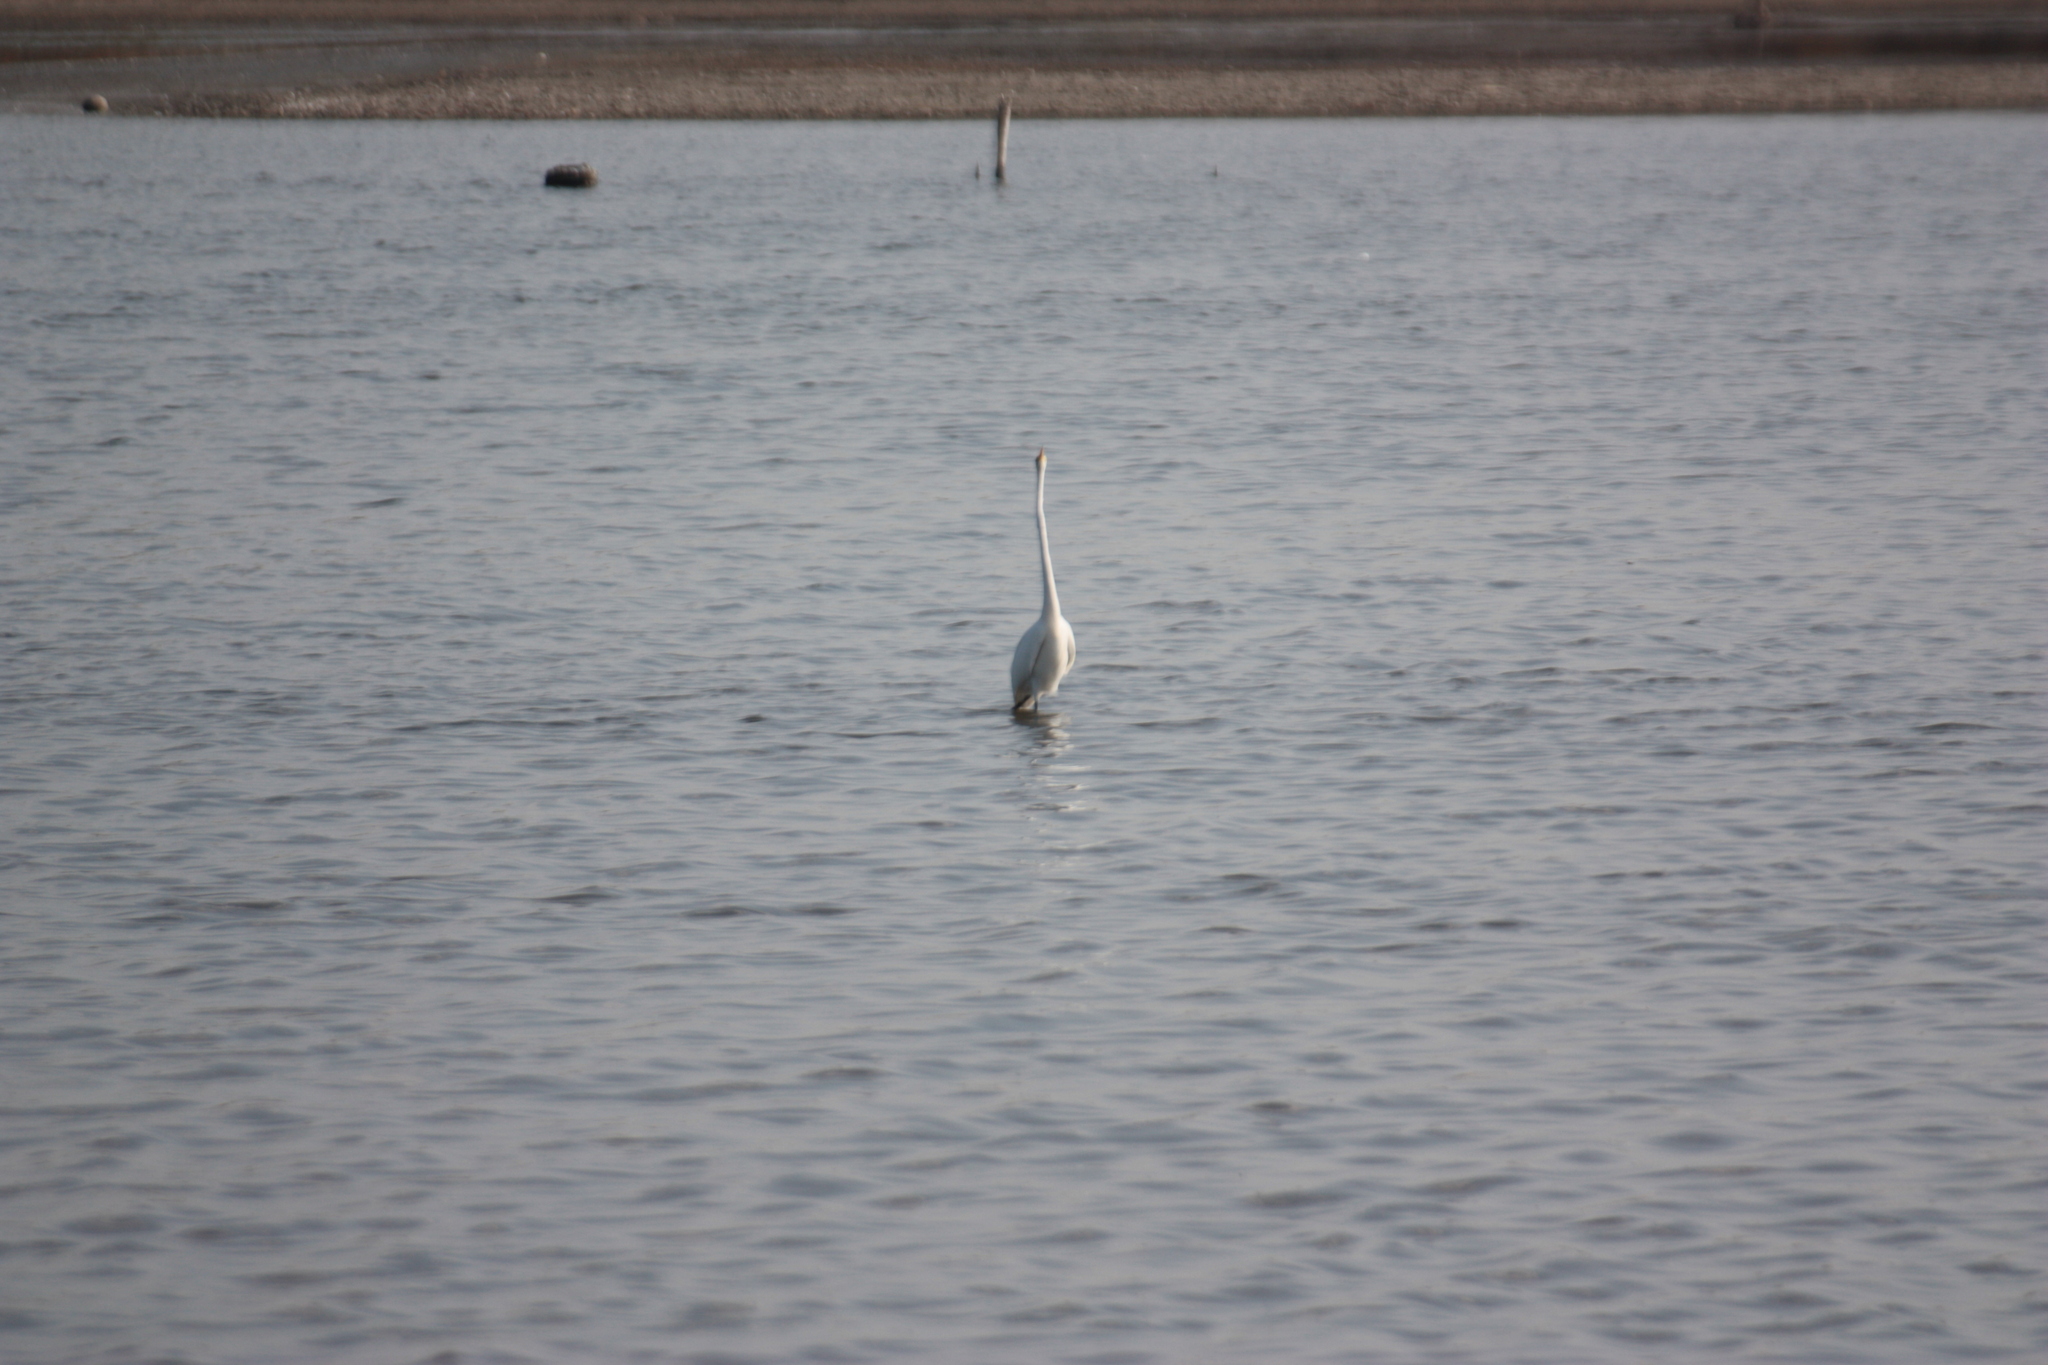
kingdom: Animalia
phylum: Chordata
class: Aves
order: Pelecaniformes
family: Ardeidae
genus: Ardea
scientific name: Ardea alba
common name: Great egret
